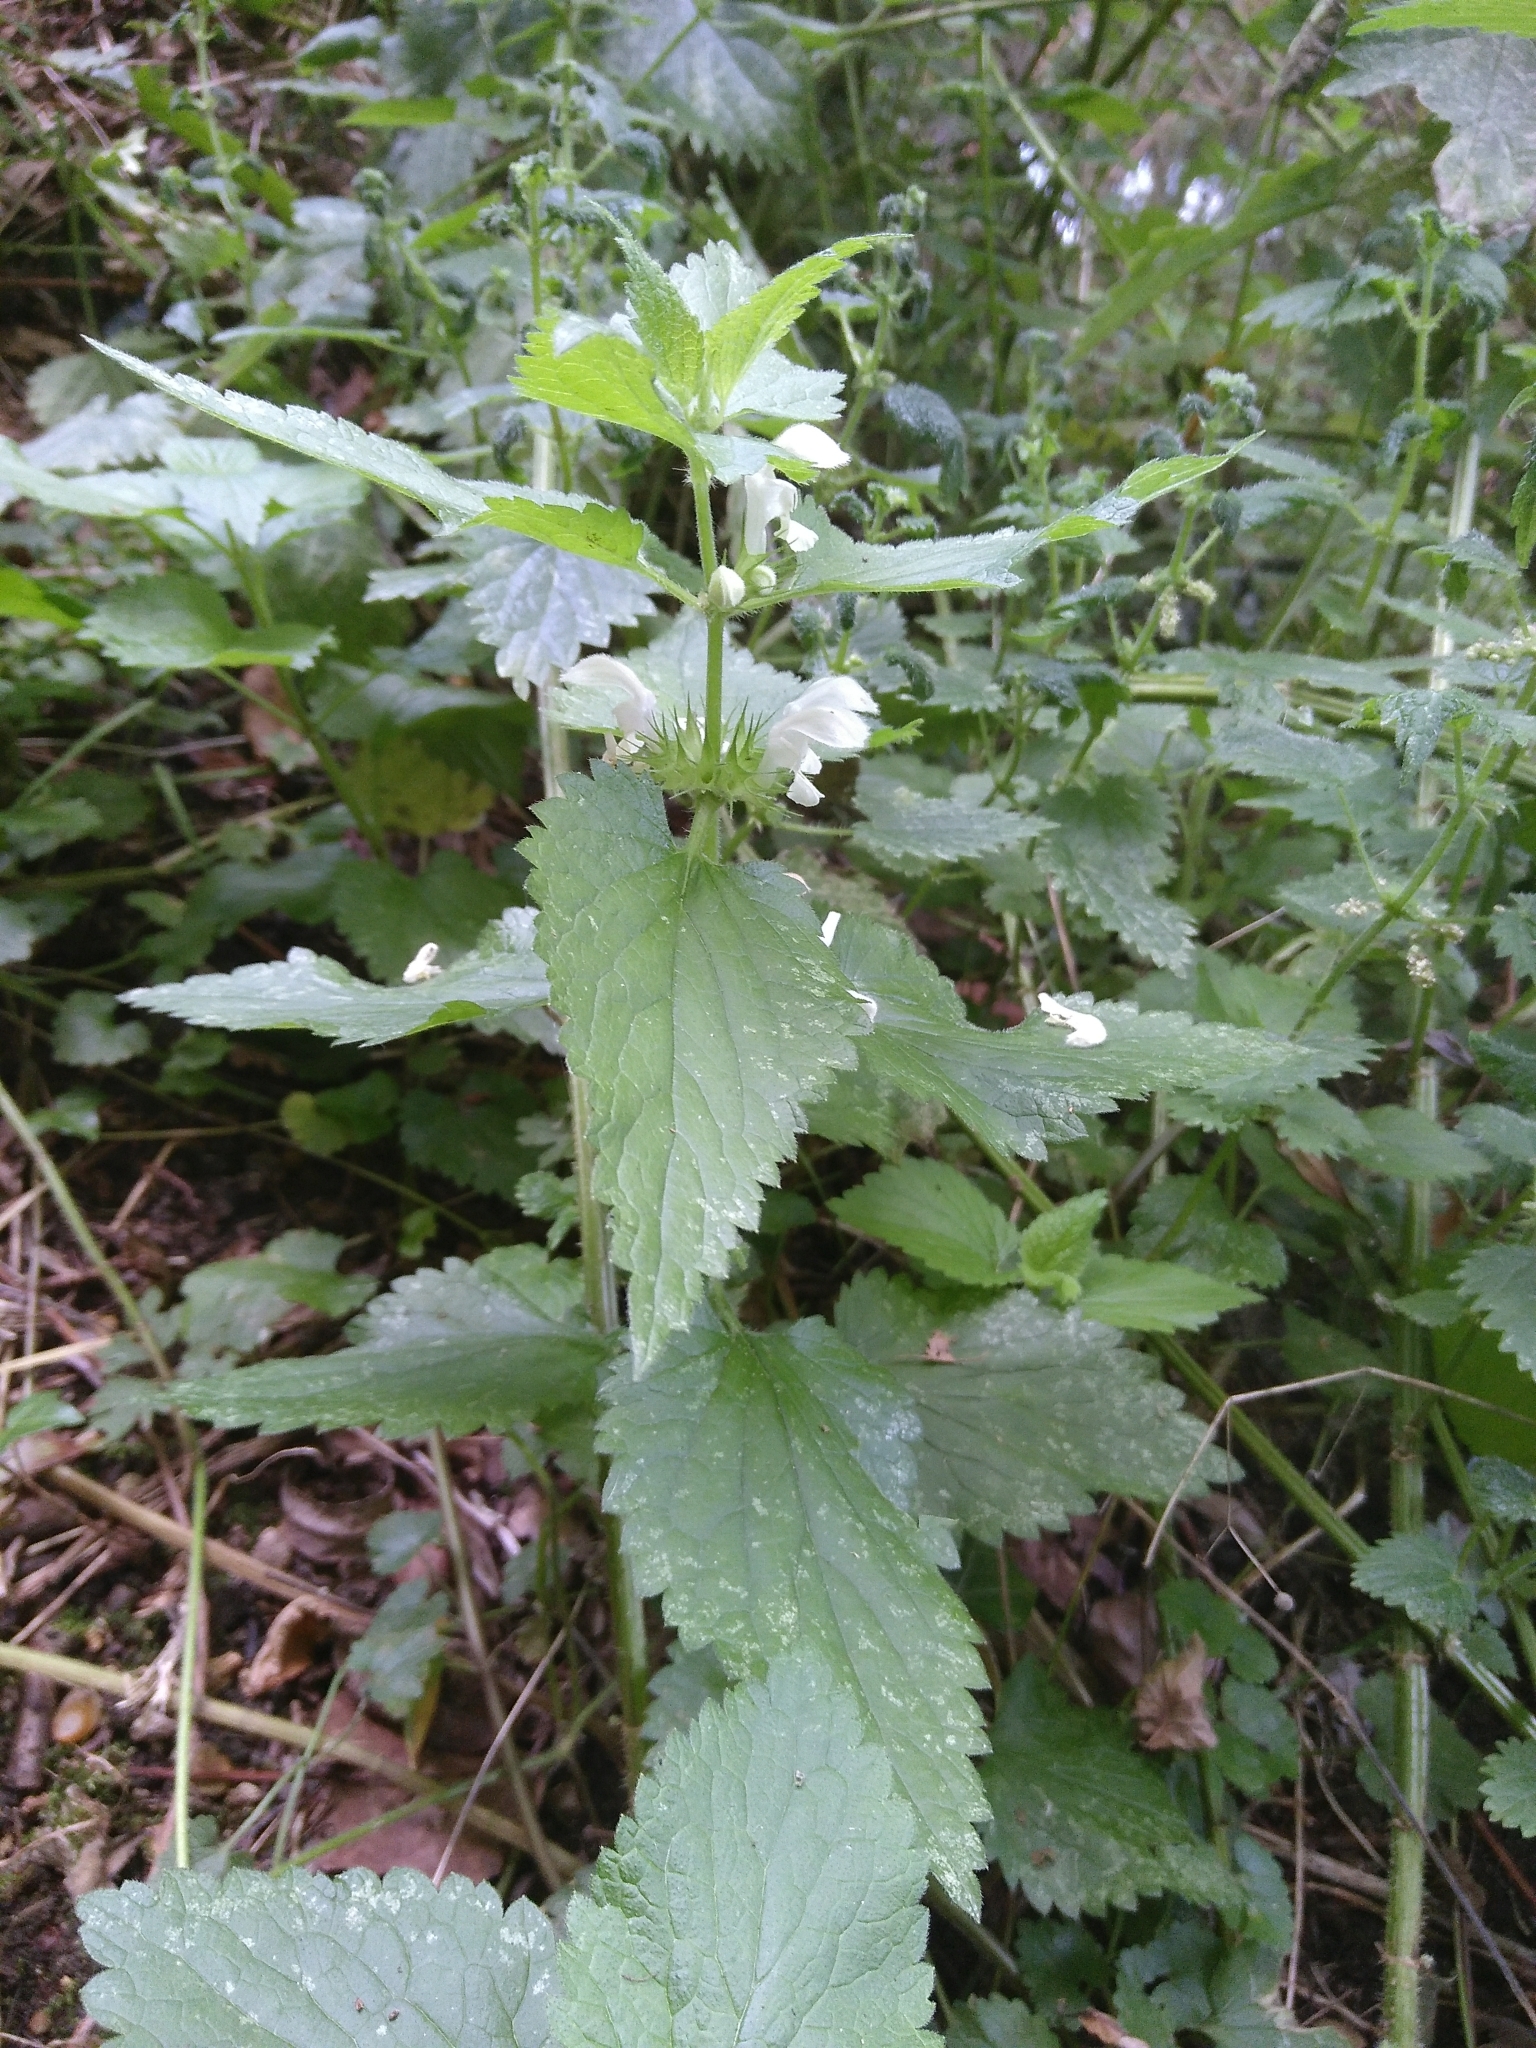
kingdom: Plantae
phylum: Tracheophyta
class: Magnoliopsida
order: Lamiales
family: Lamiaceae
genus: Lamium
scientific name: Lamium album
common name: White dead-nettle
